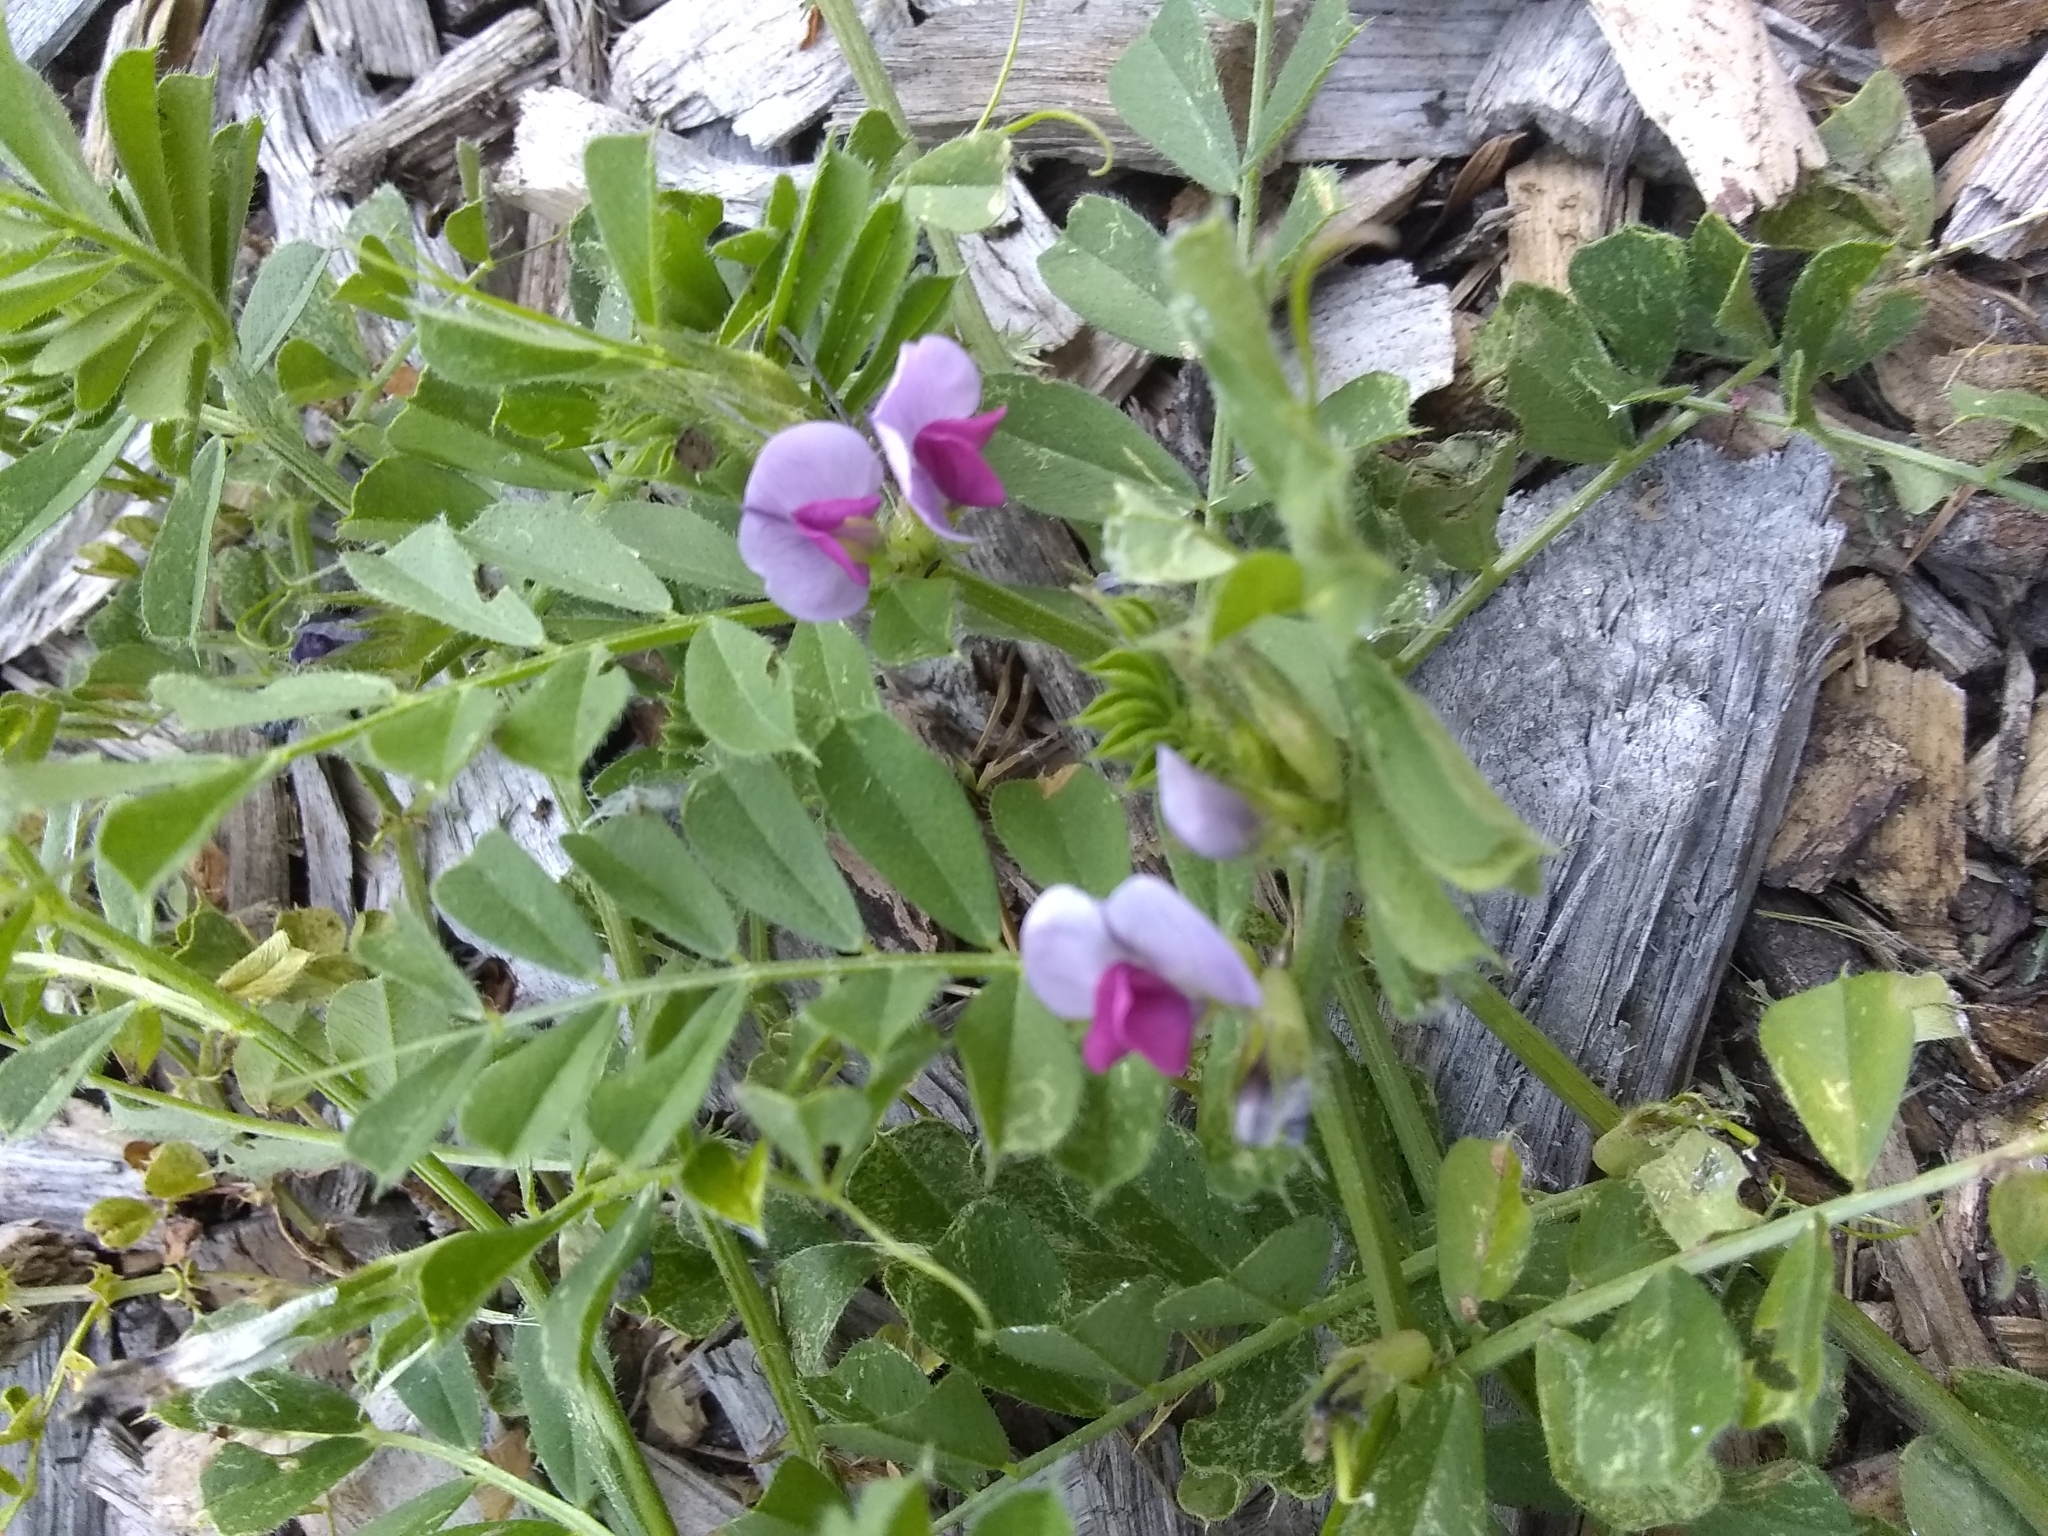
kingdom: Plantae
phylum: Tracheophyta
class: Magnoliopsida
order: Fabales
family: Fabaceae
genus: Vicia
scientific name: Vicia sativa
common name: Garden vetch
